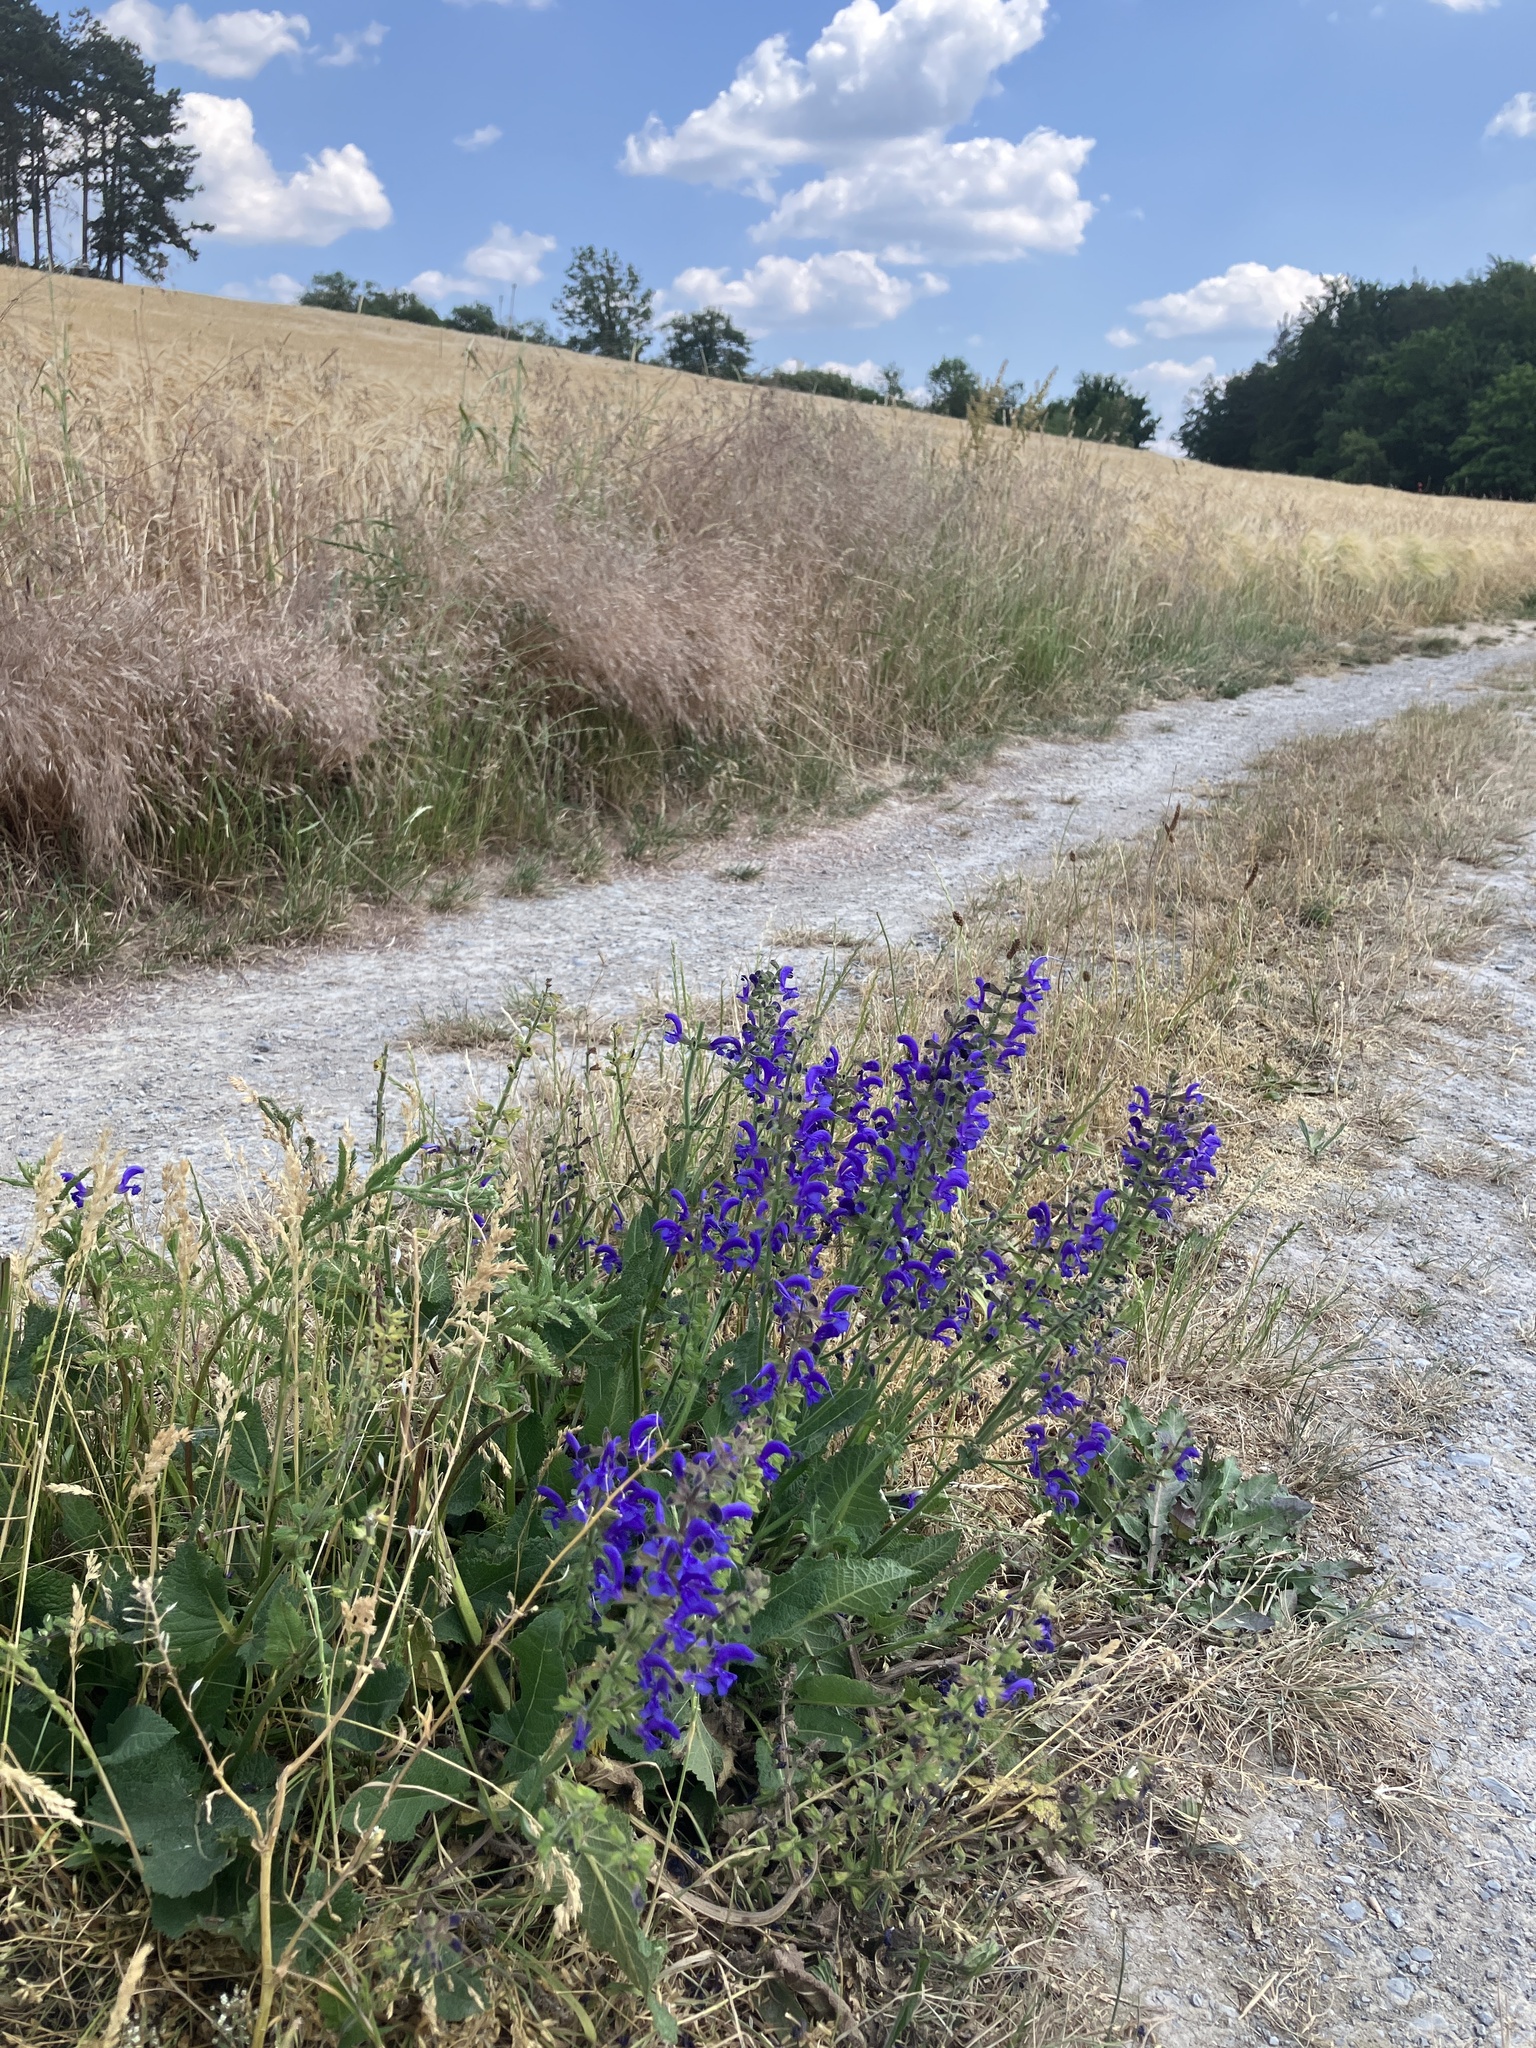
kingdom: Plantae
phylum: Tracheophyta
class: Magnoliopsida
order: Lamiales
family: Lamiaceae
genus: Salvia
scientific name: Salvia pratensis
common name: Meadow sage
